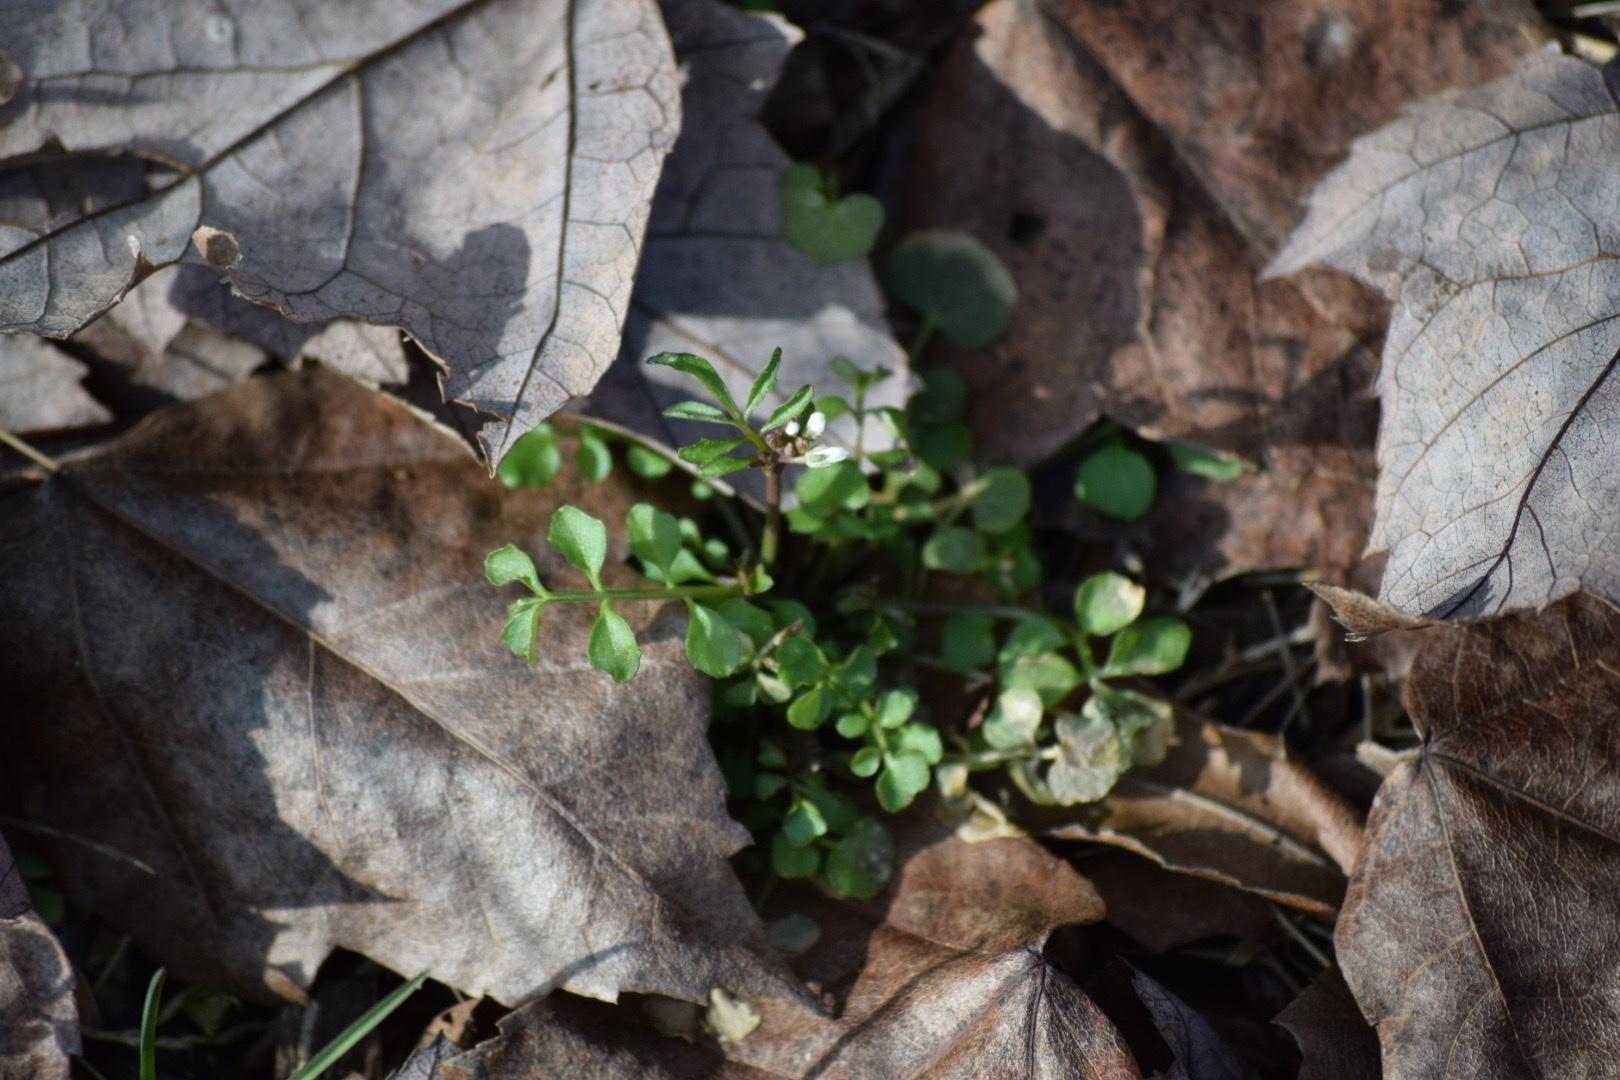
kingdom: Plantae
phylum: Tracheophyta
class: Magnoliopsida
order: Brassicales
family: Brassicaceae
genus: Cardamine
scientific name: Cardamine hirsuta
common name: Hairy bittercress
